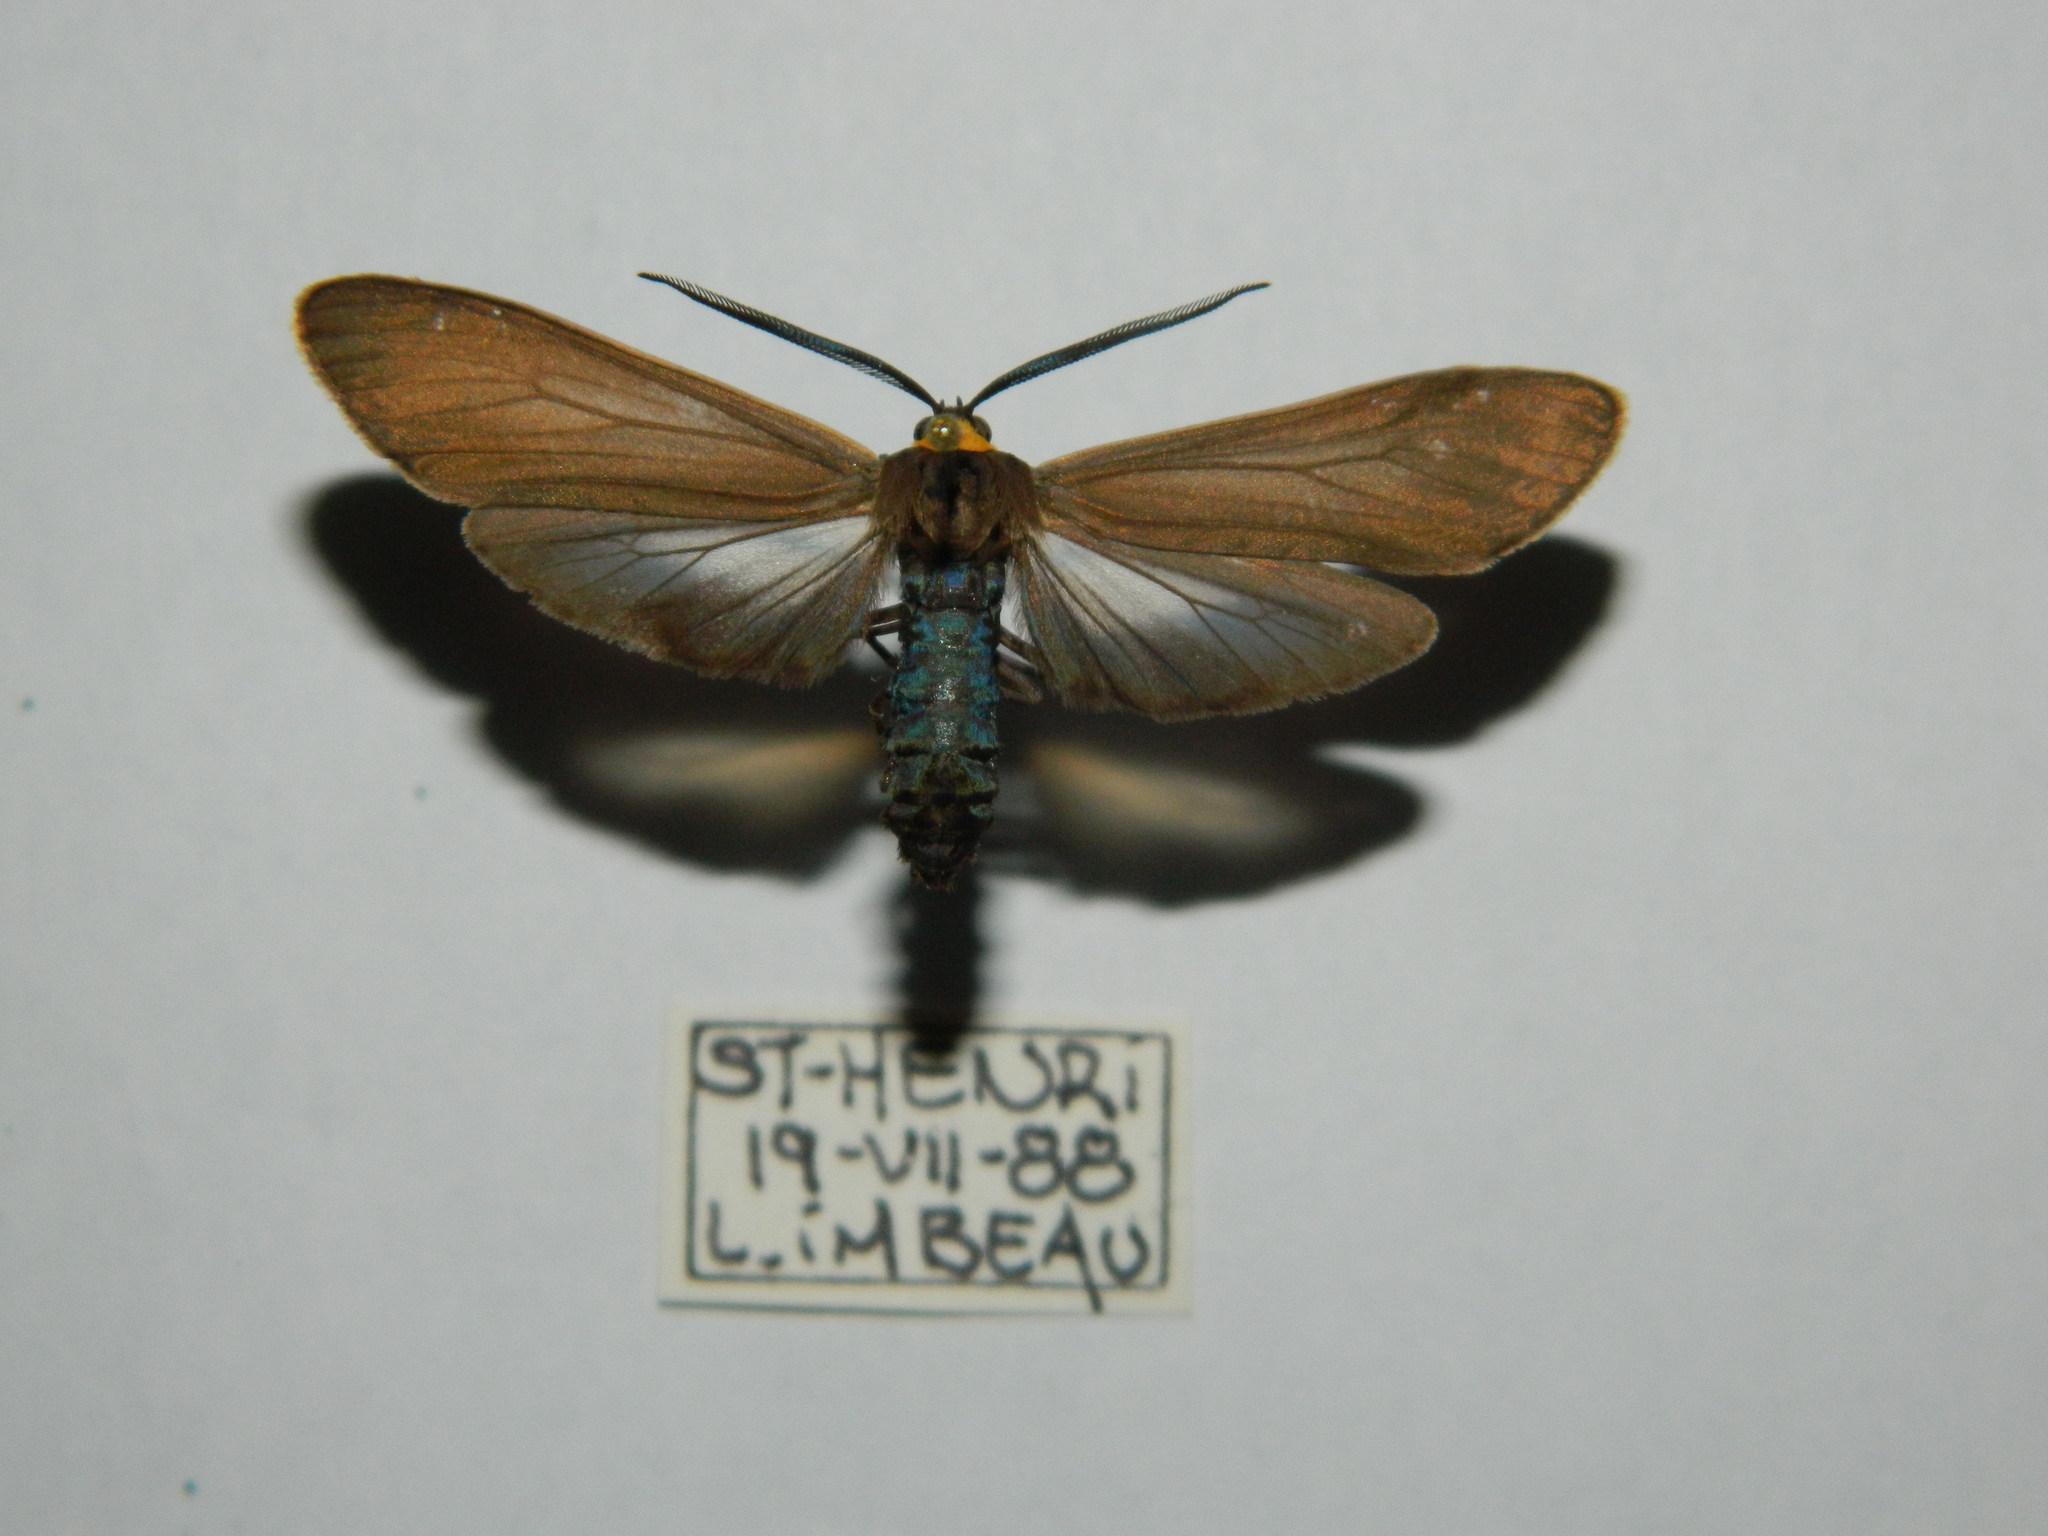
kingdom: Animalia
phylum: Arthropoda
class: Insecta
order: Lepidoptera
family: Erebidae
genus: Cisseps
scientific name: Cisseps fulvicollis
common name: Yellow-collared scape moth
